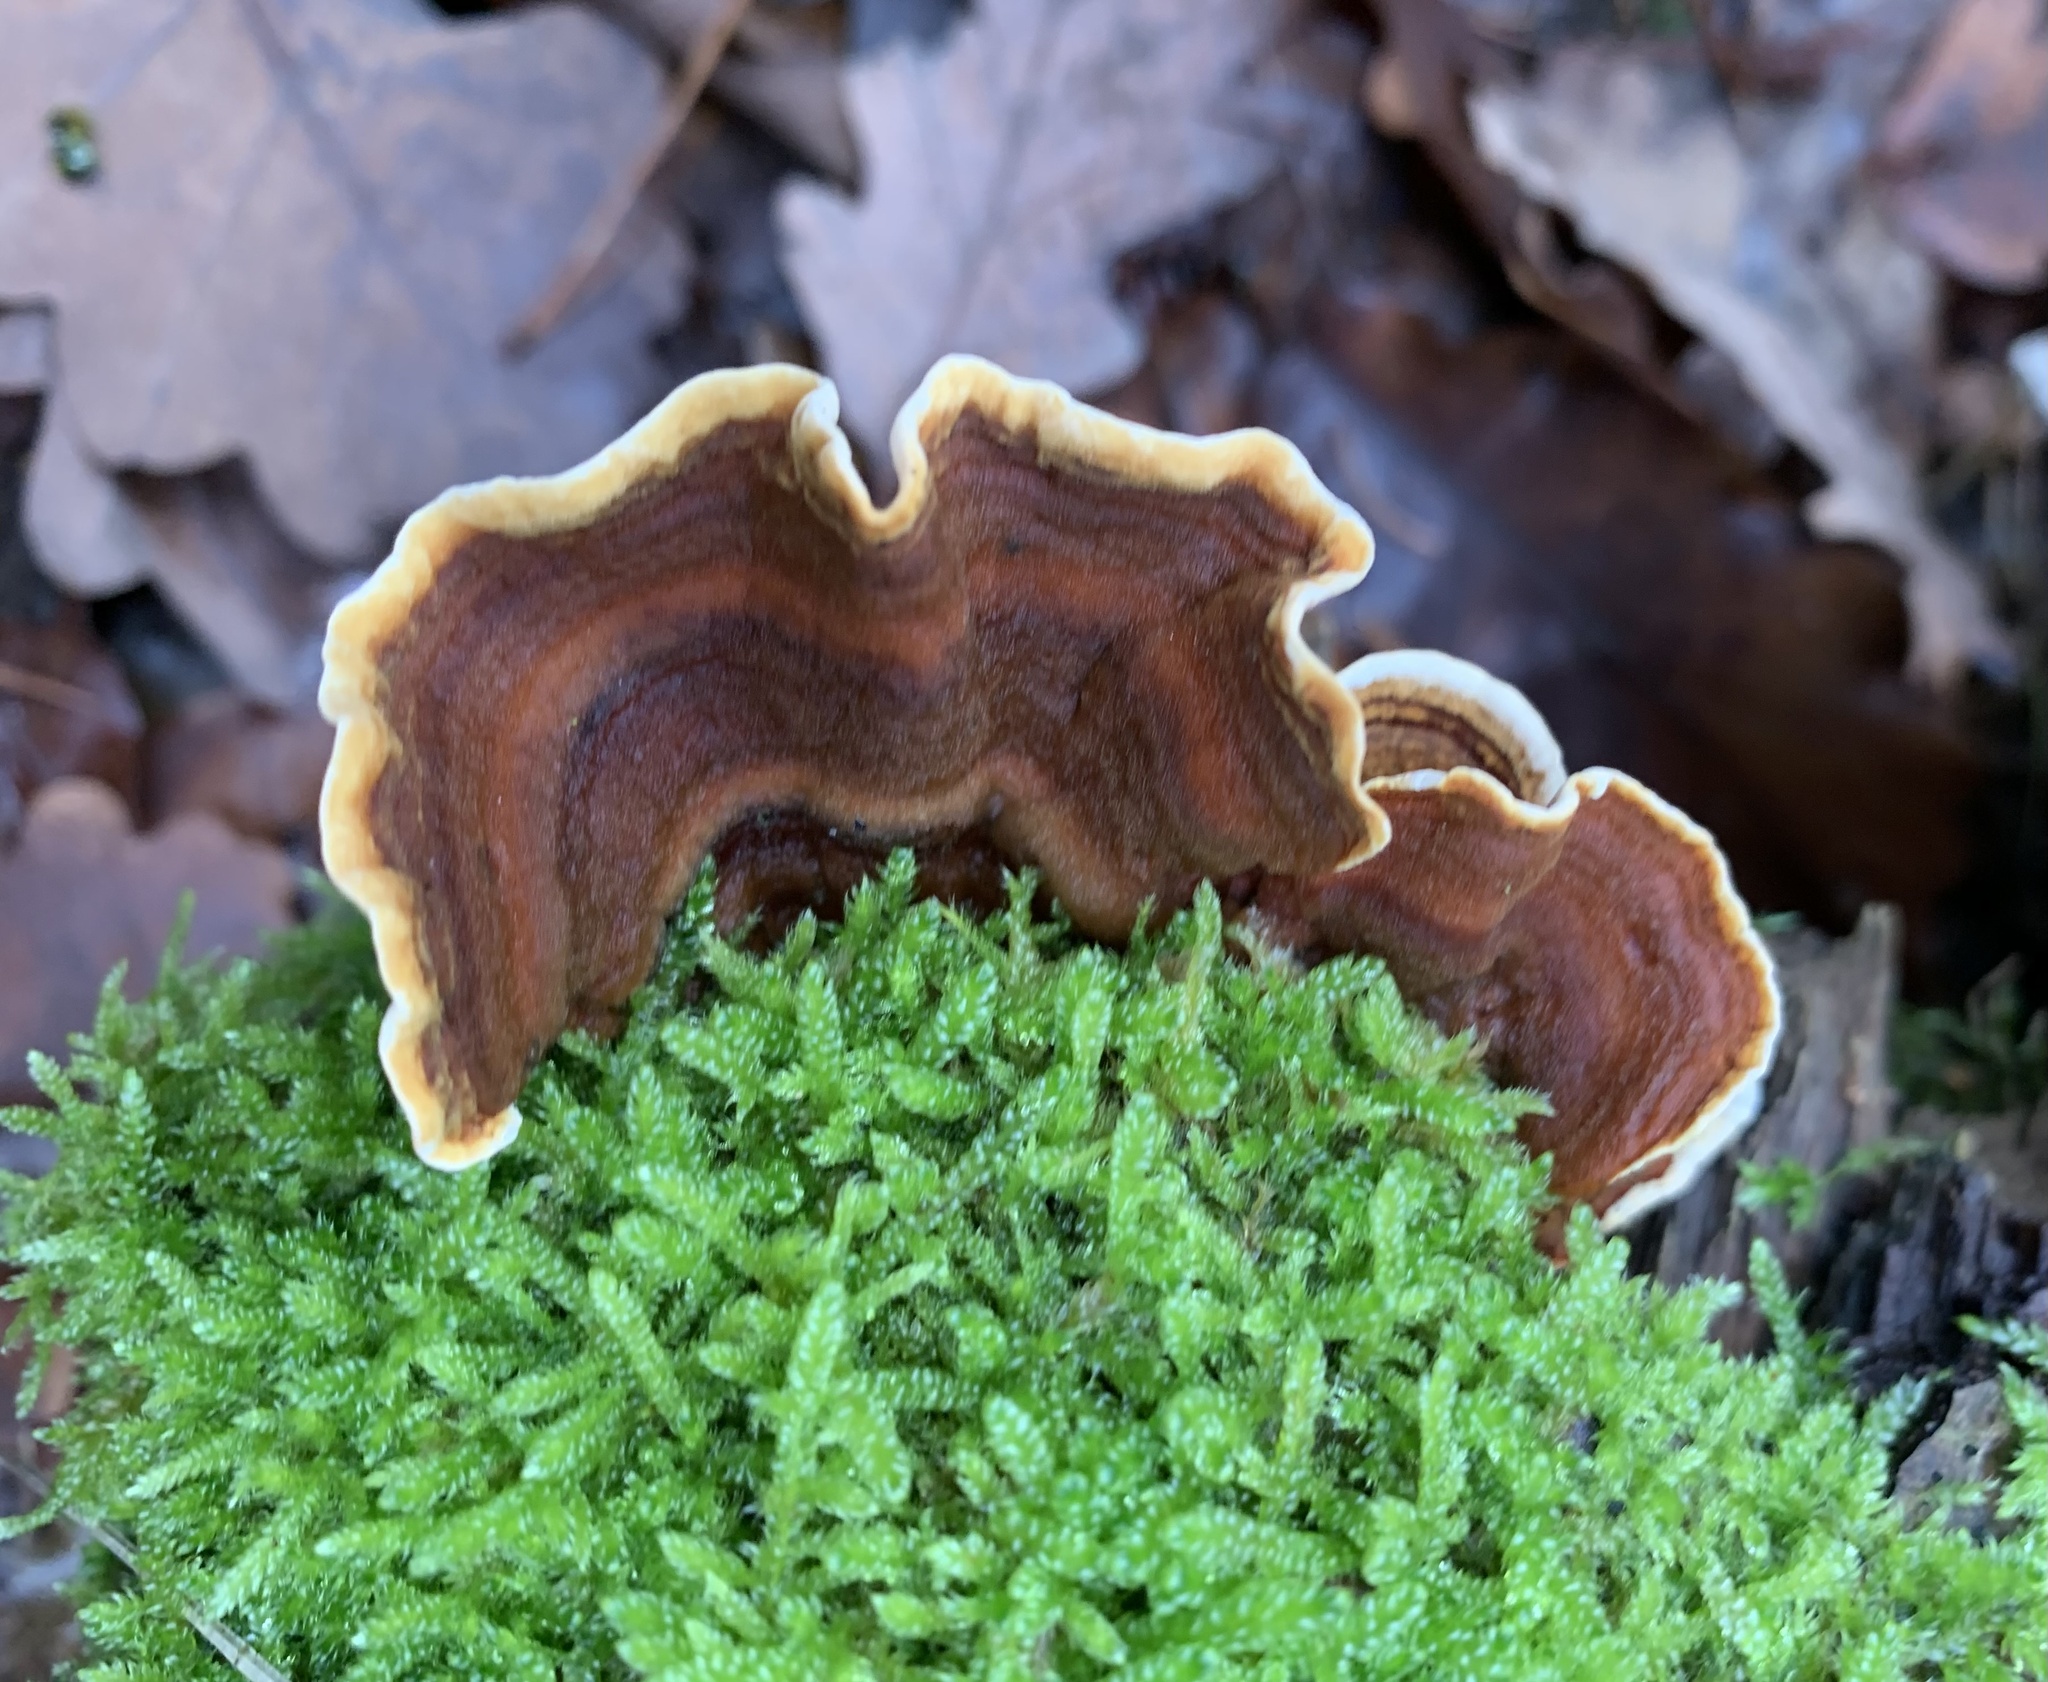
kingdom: Fungi
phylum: Basidiomycota
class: Agaricomycetes
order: Russulales
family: Stereaceae
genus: Stereum
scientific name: Stereum hirsutum
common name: Hairy curtain crust
